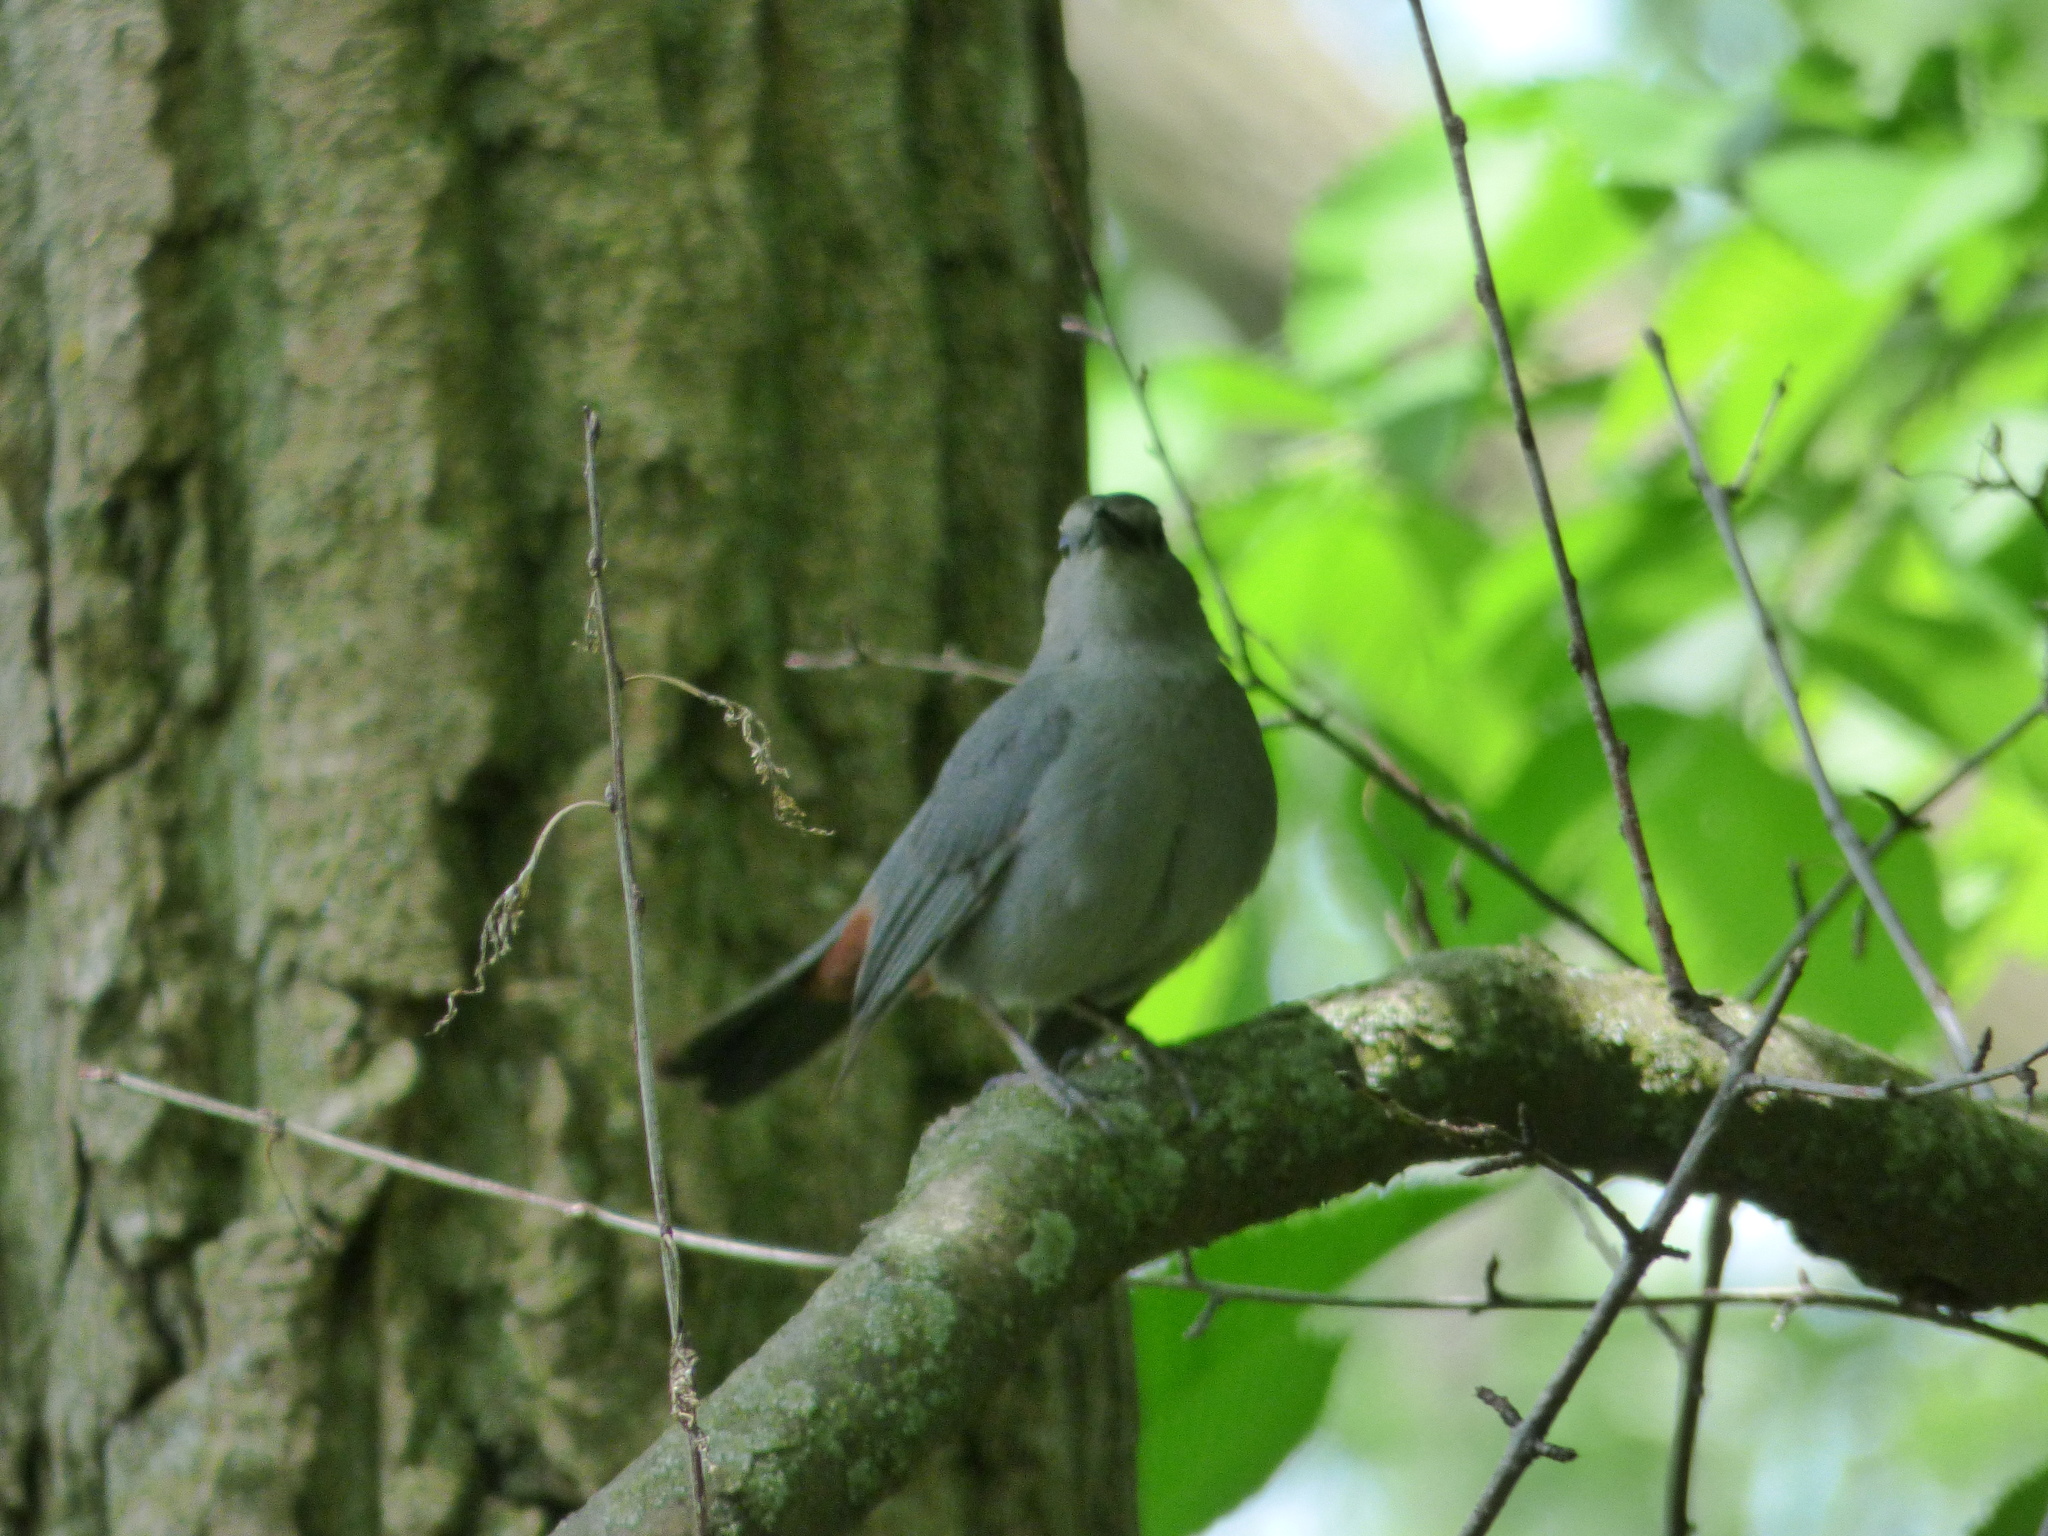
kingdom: Animalia
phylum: Chordata
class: Aves
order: Passeriformes
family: Mimidae
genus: Dumetella
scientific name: Dumetella carolinensis
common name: Gray catbird
